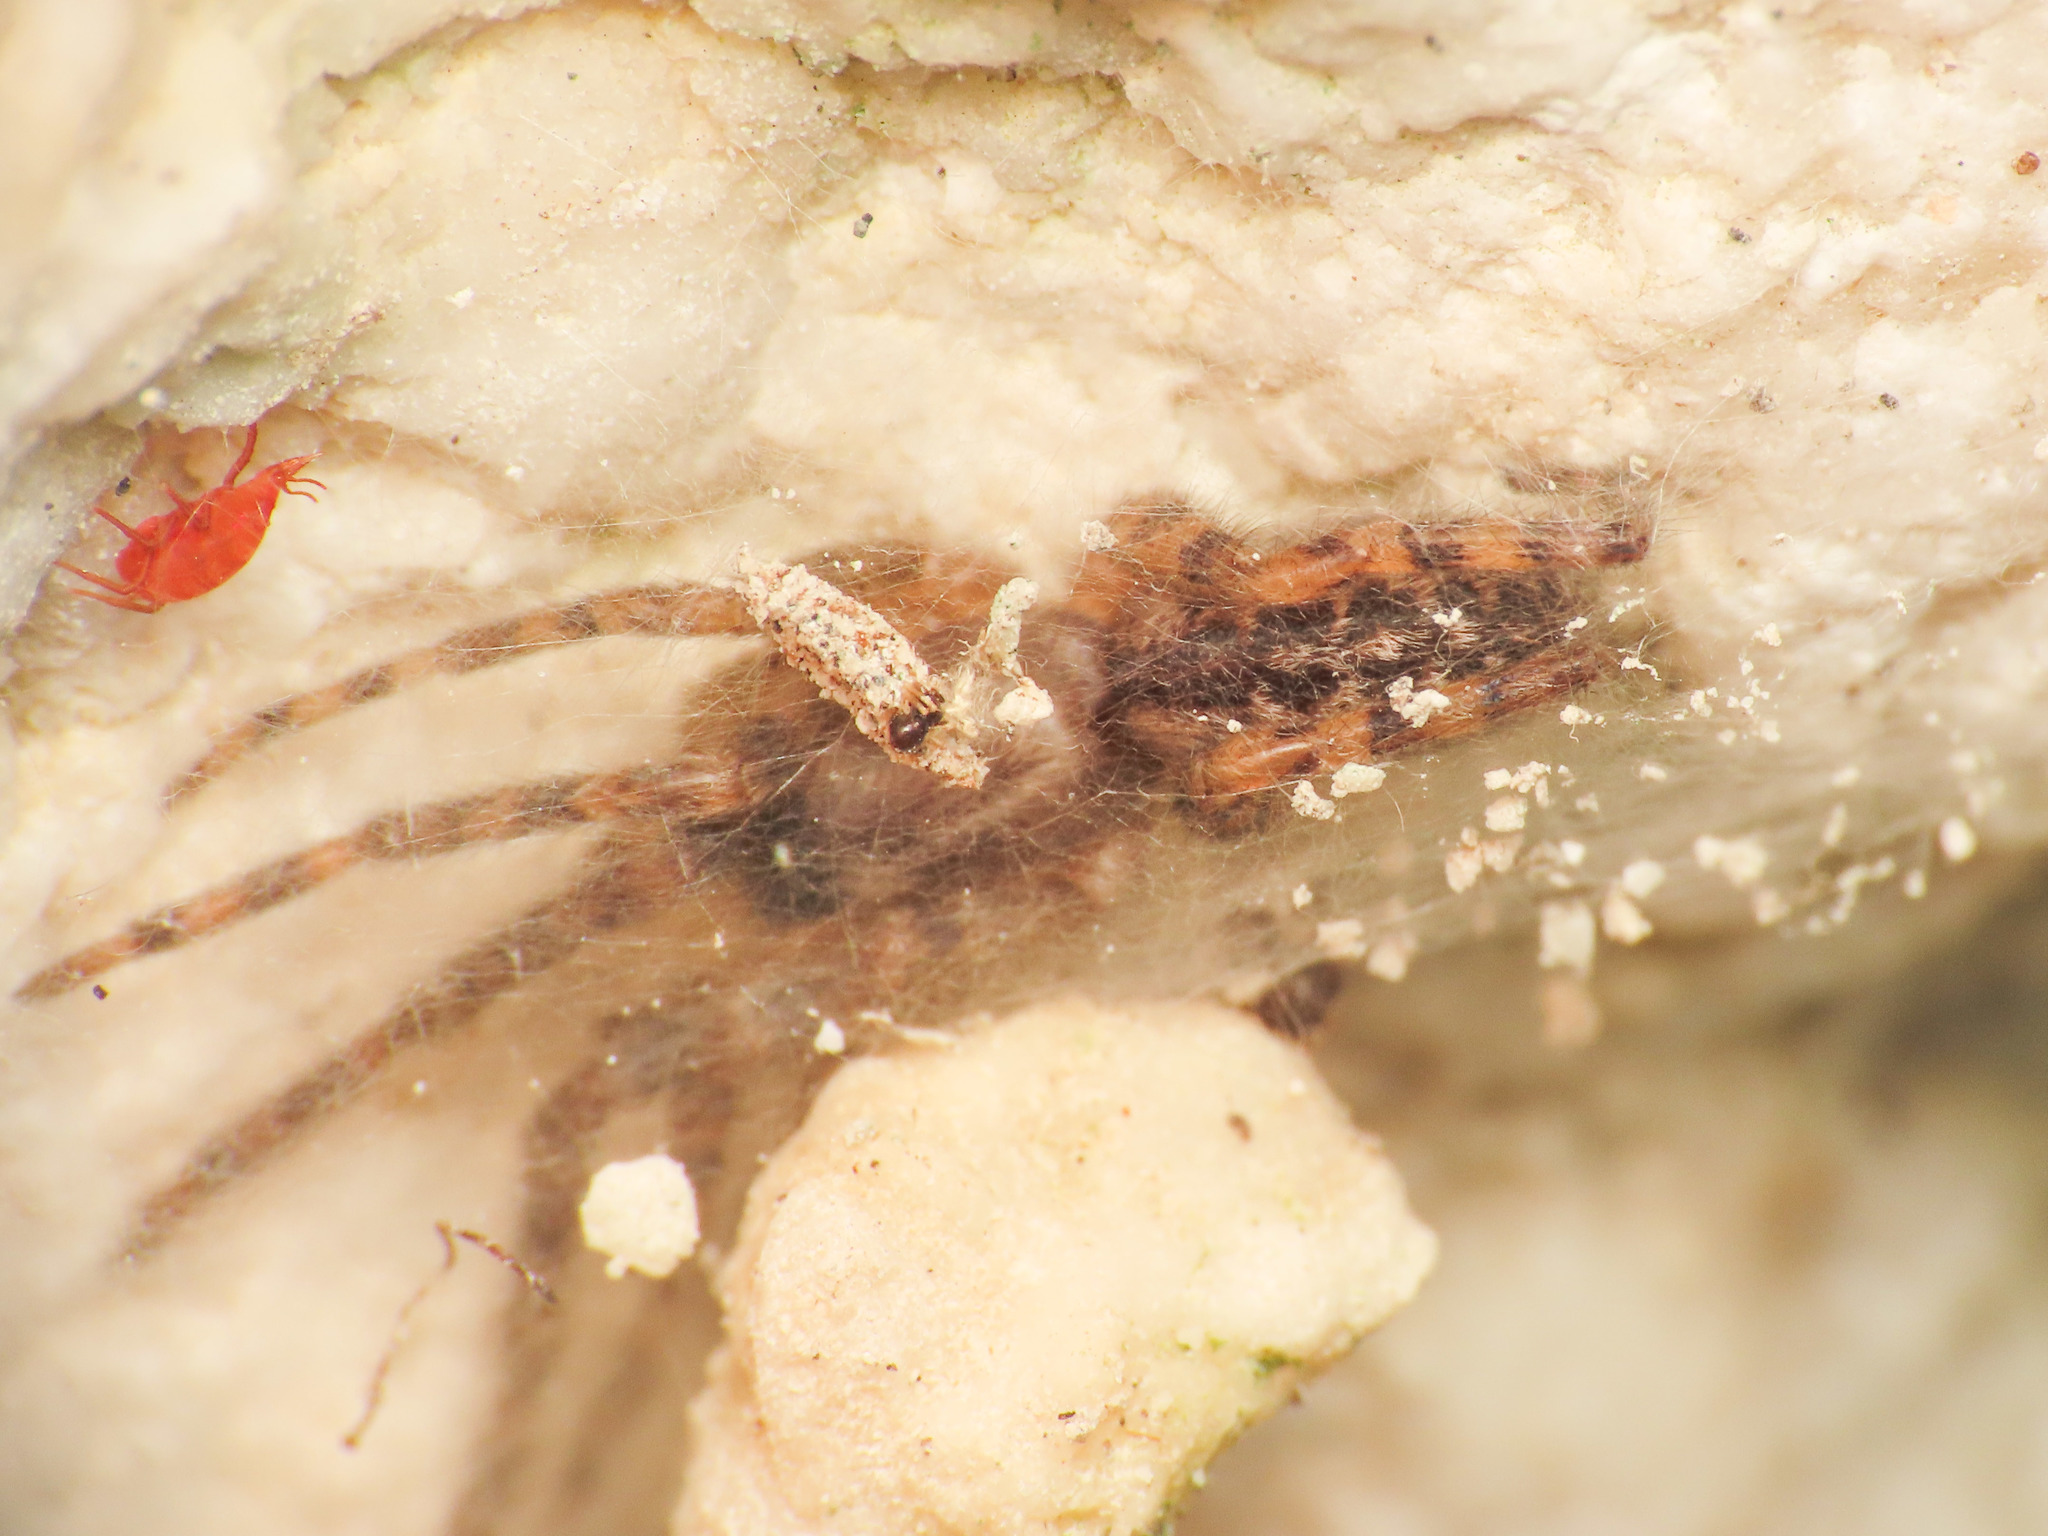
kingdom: Animalia
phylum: Arthropoda
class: Arachnida
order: Araneae
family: Segestriidae
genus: Segestria
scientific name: Segestria bavarica
